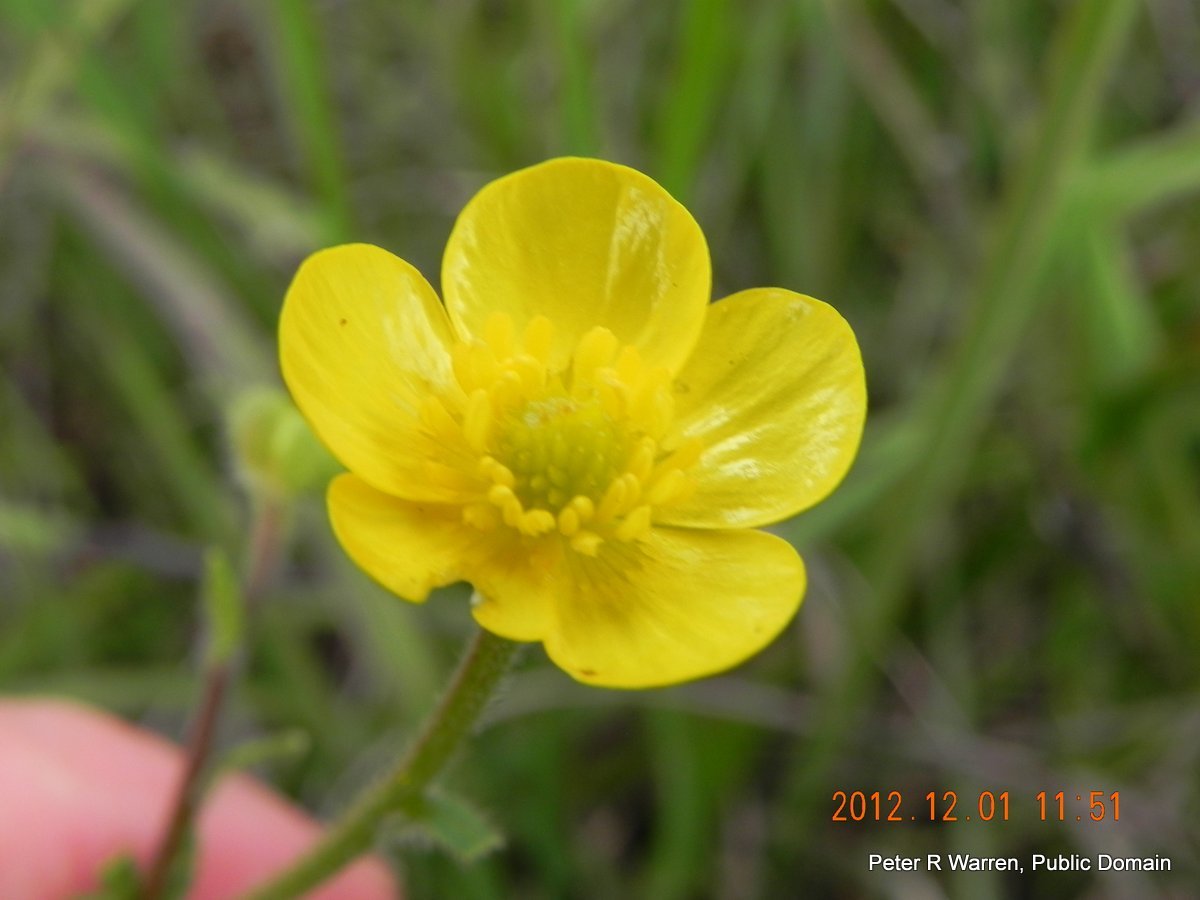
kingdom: Plantae
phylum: Tracheophyta
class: Magnoliopsida
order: Ranunculales
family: Ranunculaceae
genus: Ranunculus
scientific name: Ranunculus multifidus
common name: Wild buttercup
